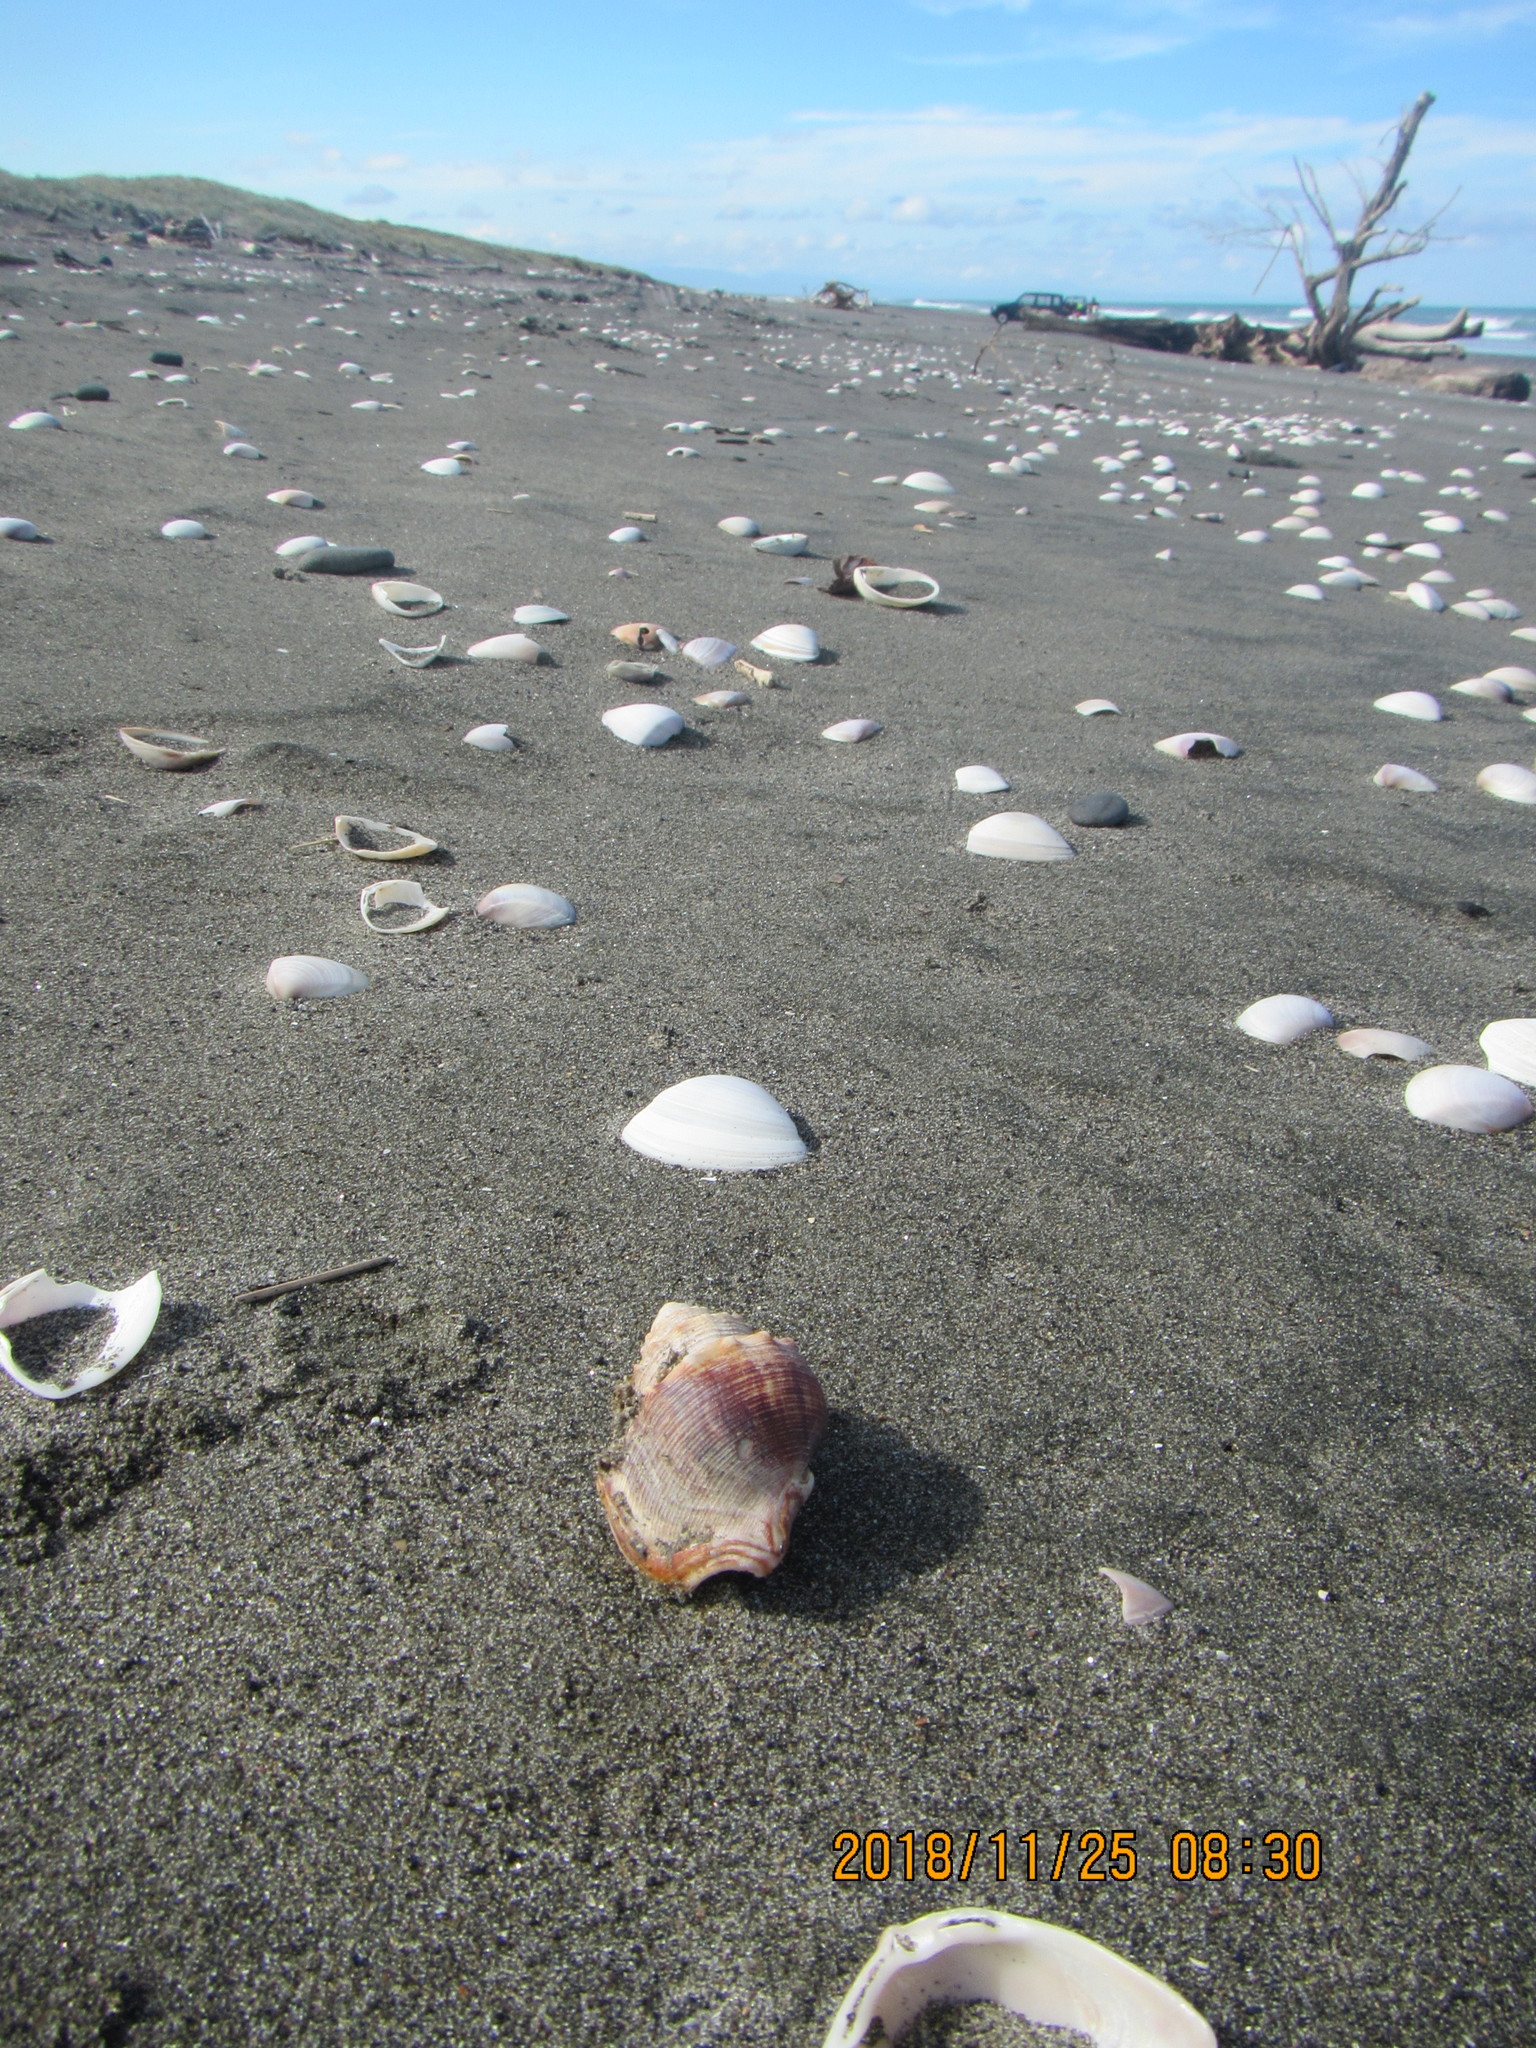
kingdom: Animalia
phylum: Mollusca
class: Gastropoda
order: Littorinimorpha
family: Struthiolariidae
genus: Struthiolaria
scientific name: Struthiolaria papulosa
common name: Large ostrich foot
